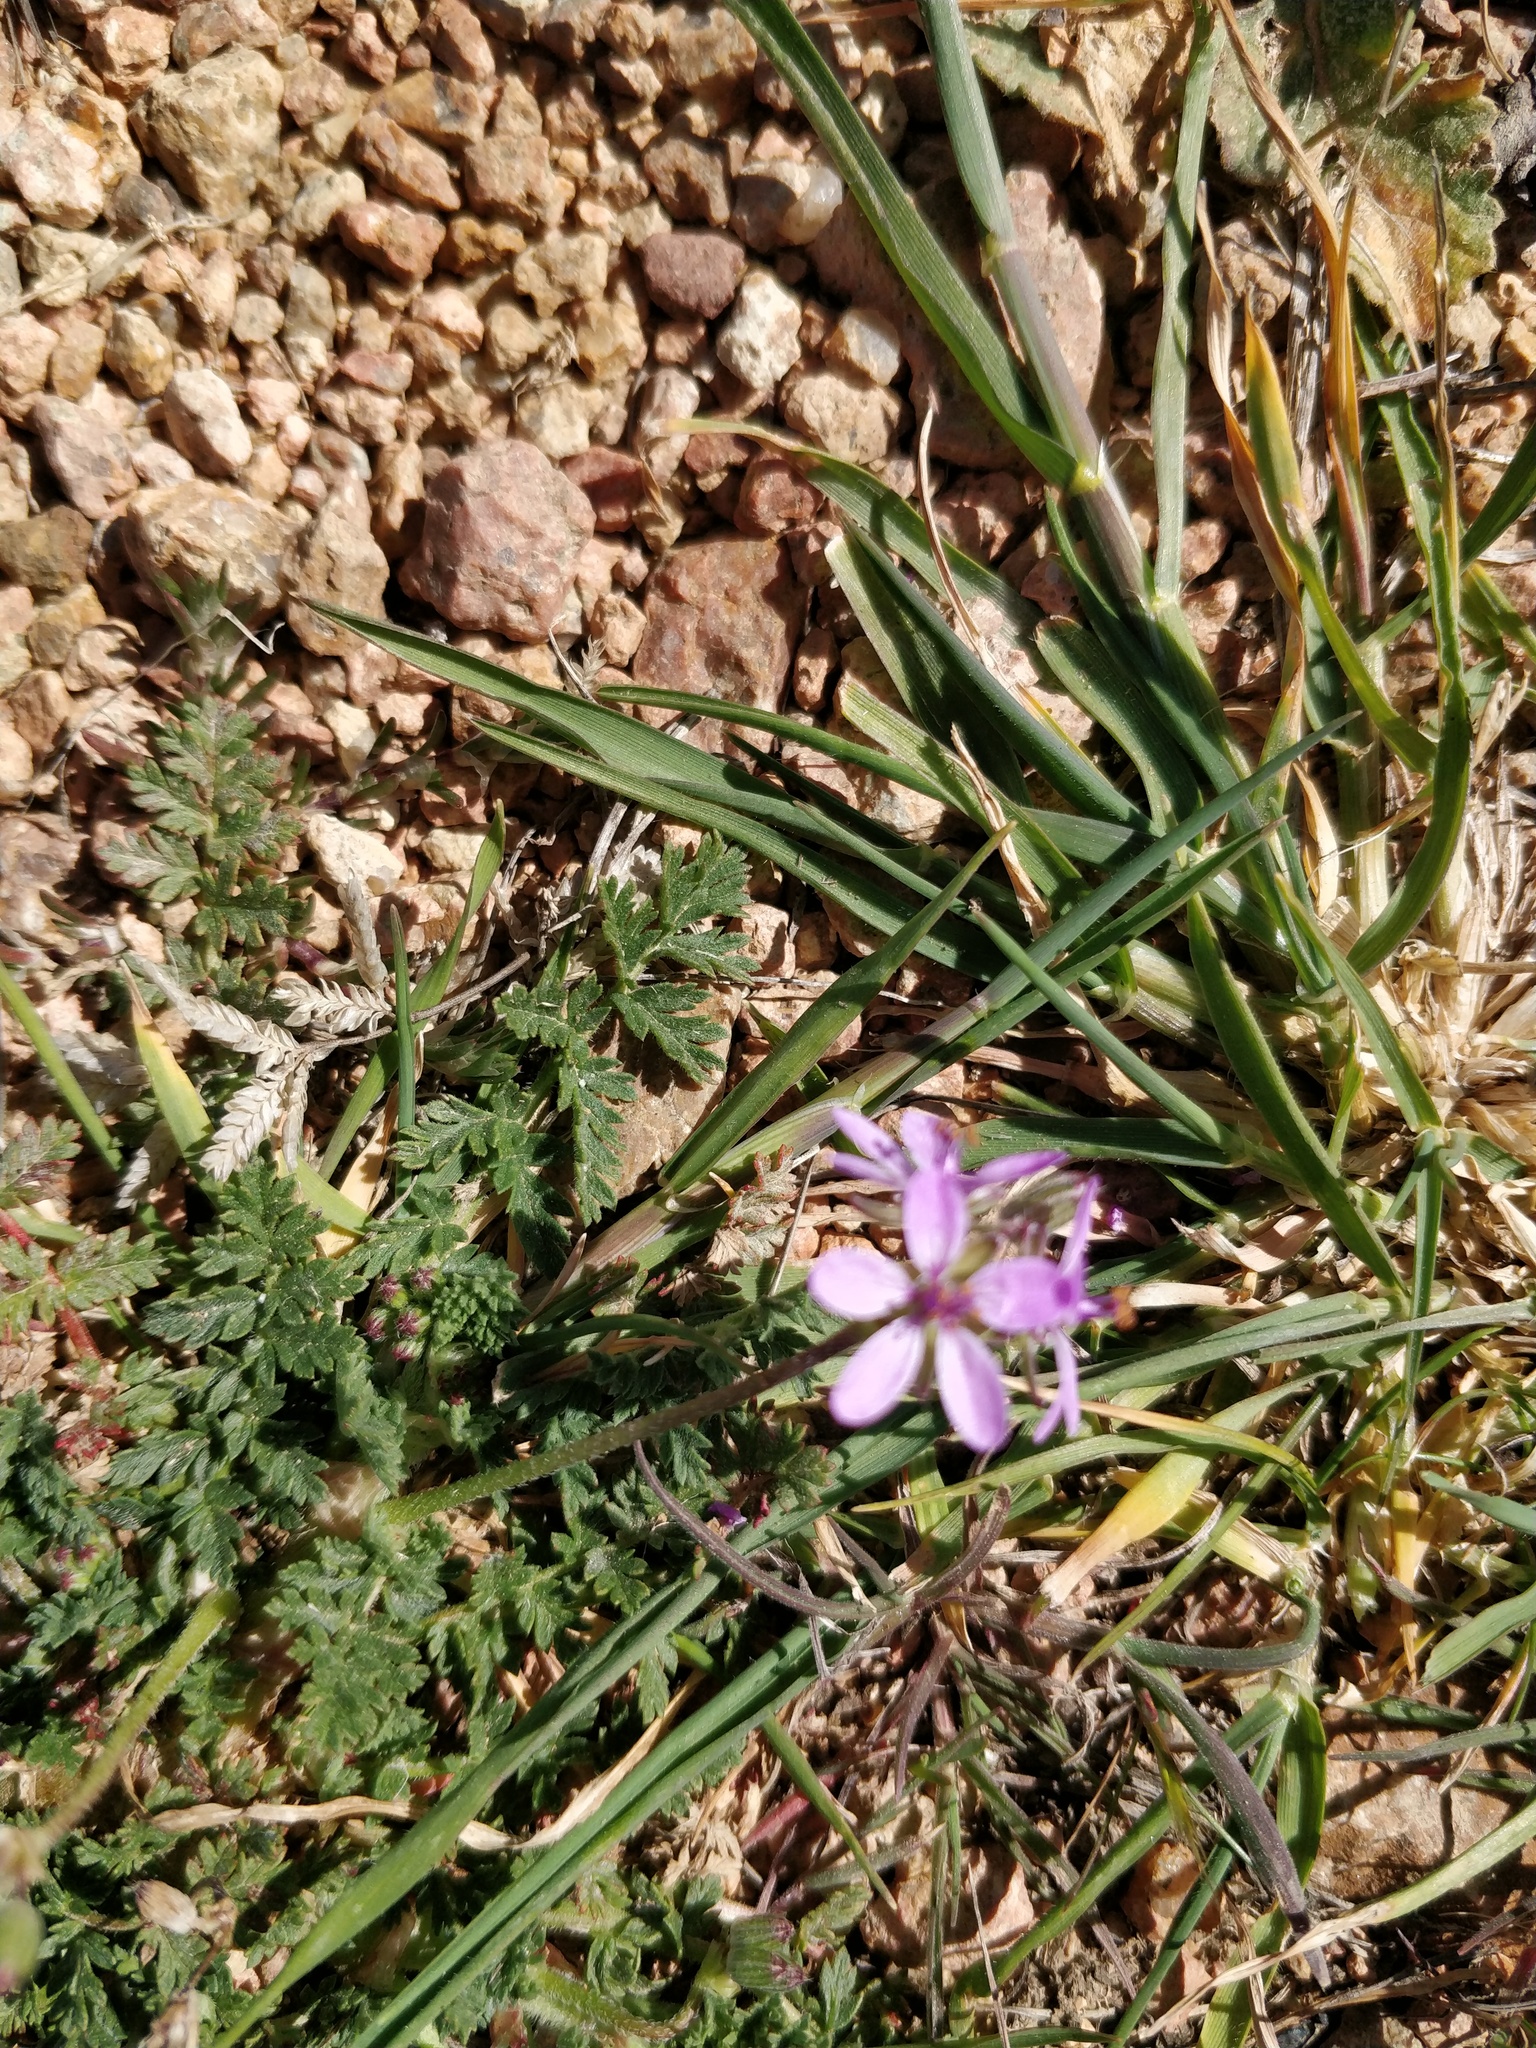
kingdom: Plantae
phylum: Tracheophyta
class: Magnoliopsida
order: Geraniales
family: Geraniaceae
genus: Erodium
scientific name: Erodium cicutarium
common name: Common stork's-bill
